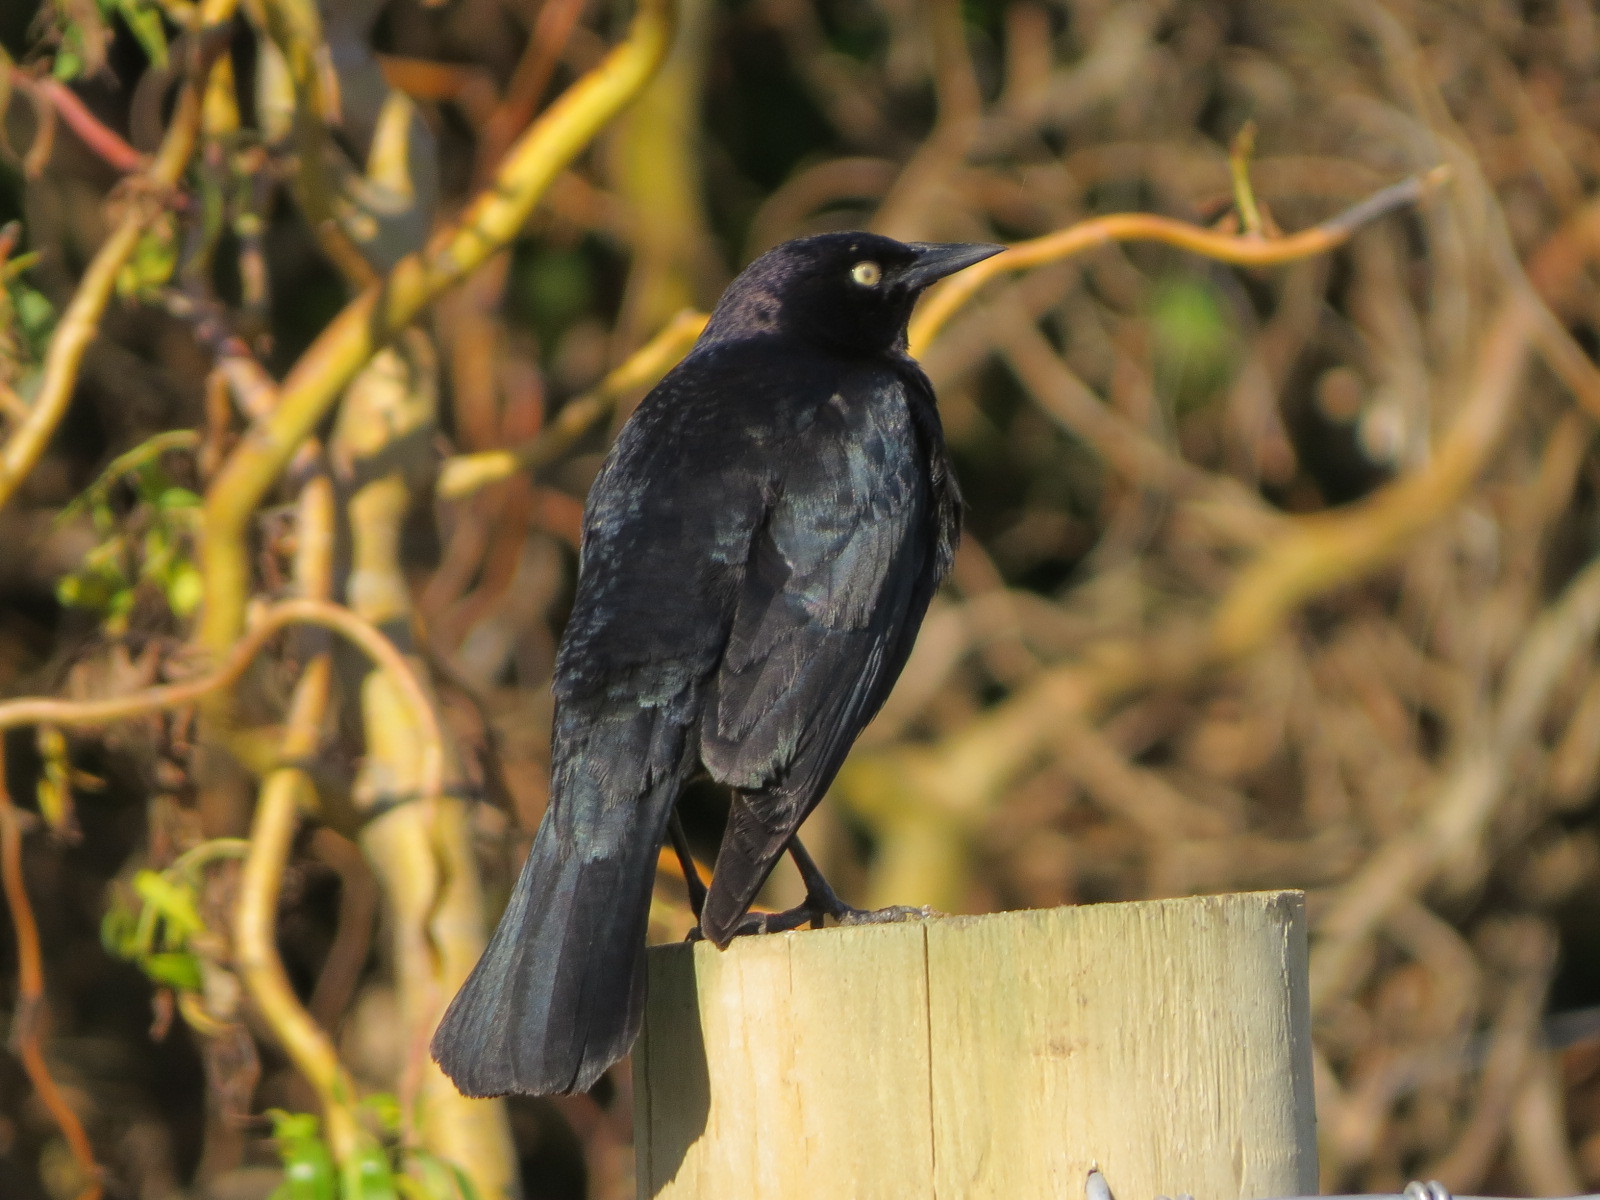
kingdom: Animalia
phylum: Chordata
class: Aves
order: Passeriformes
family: Icteridae
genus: Euphagus
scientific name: Euphagus cyanocephalus
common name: Brewer's blackbird
